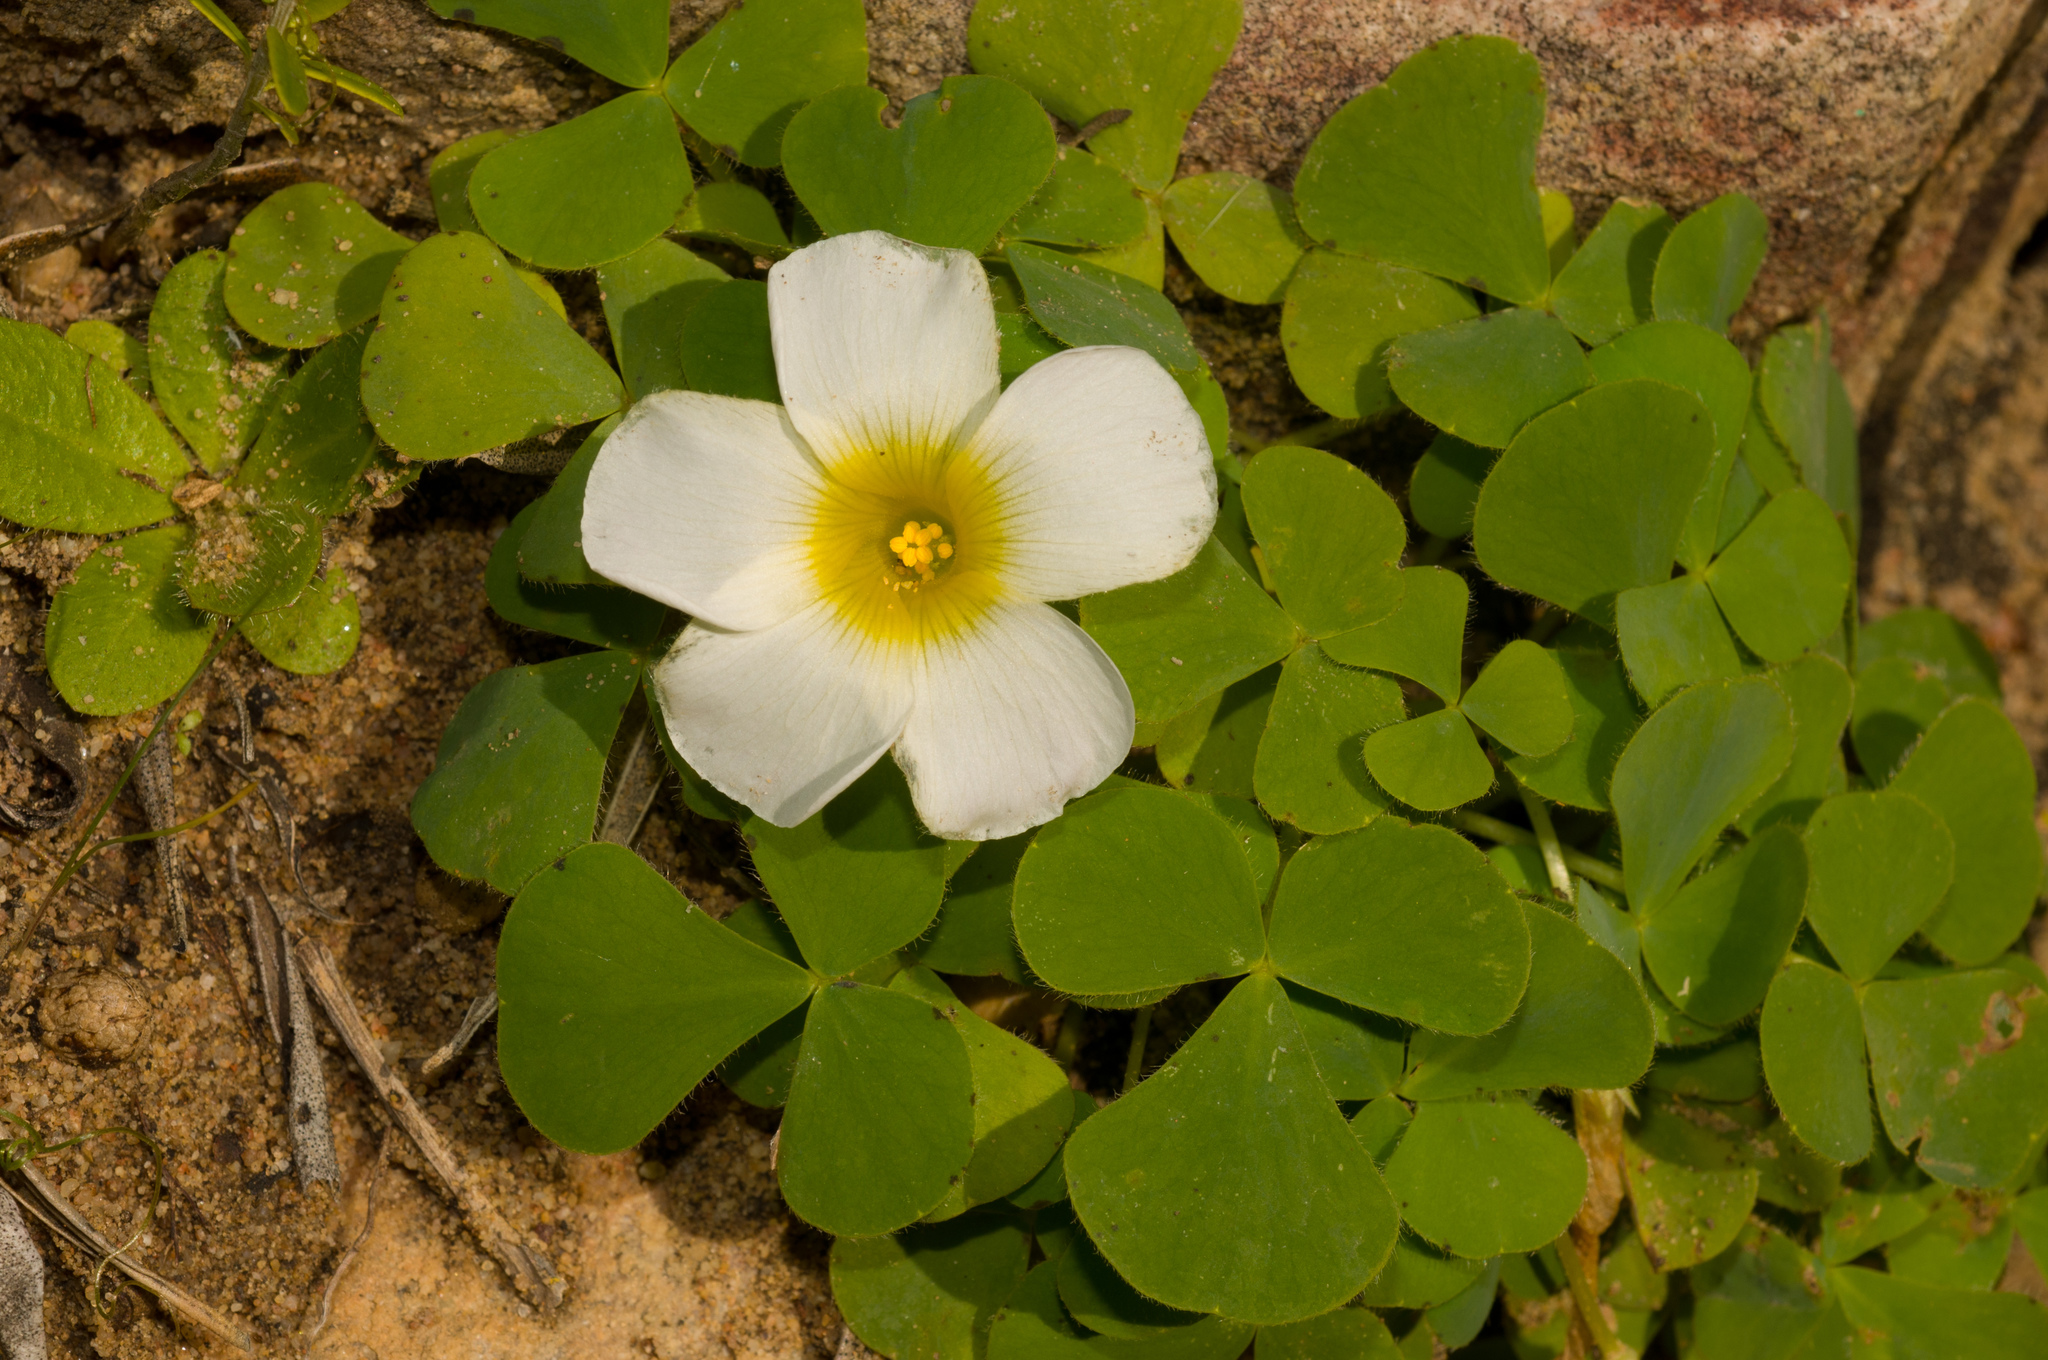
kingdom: Plantae
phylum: Tracheophyta
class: Magnoliopsida
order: Oxalidales
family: Oxalidaceae
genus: Oxalis
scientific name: Oxalis purpurea
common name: Purple woodsorrel
